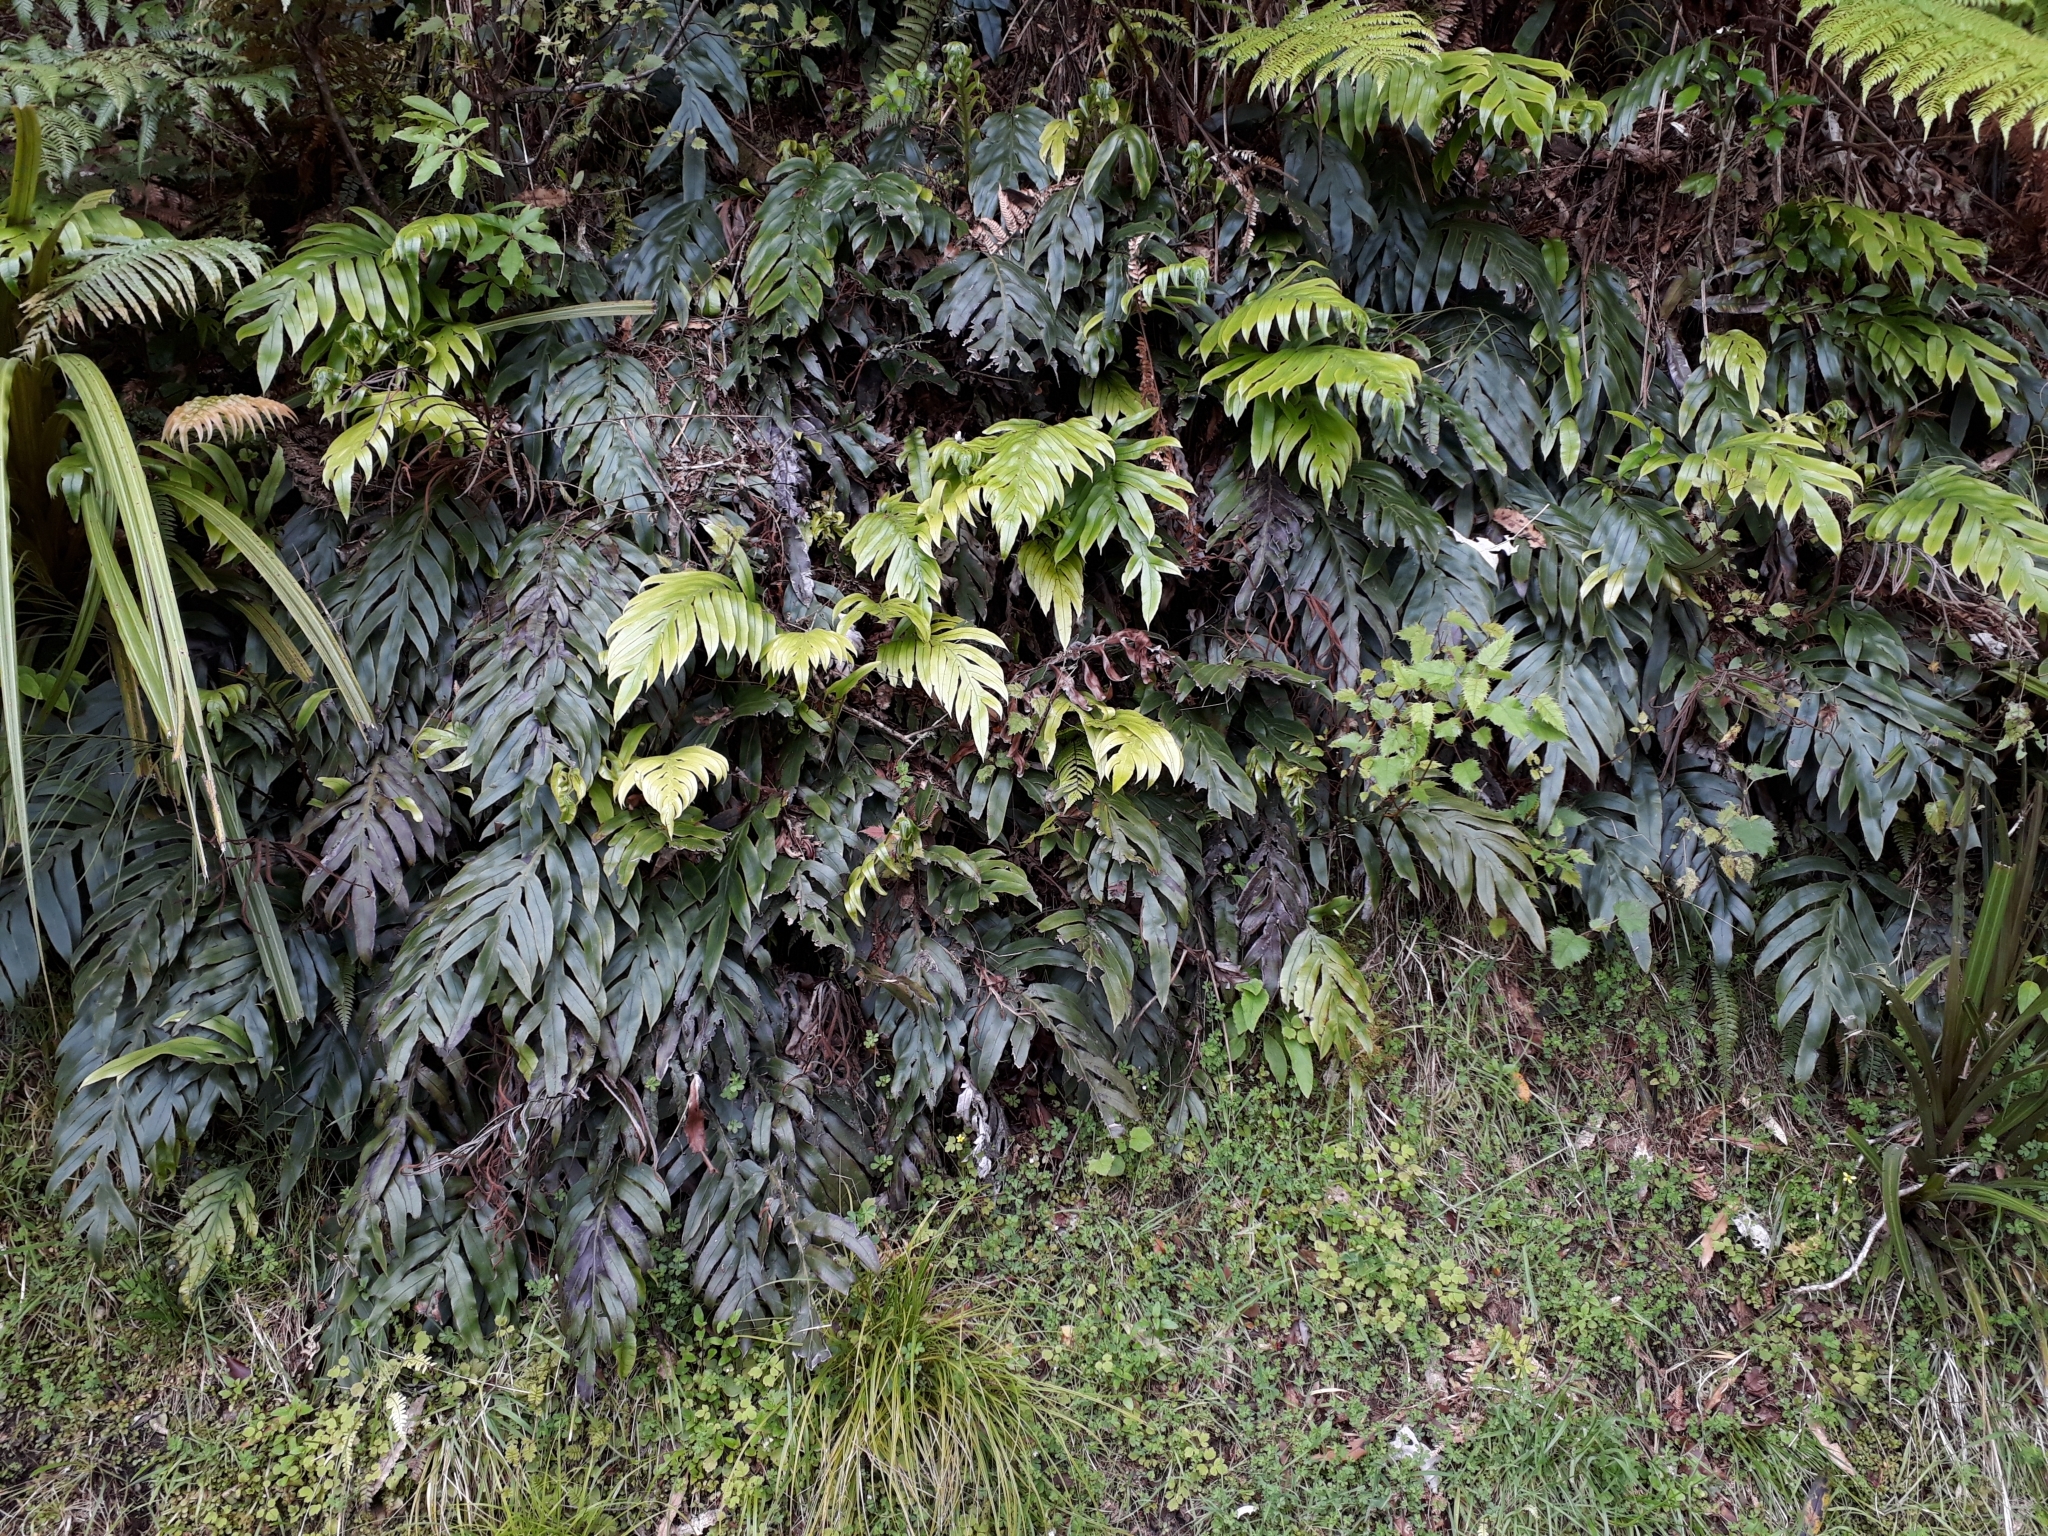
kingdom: Plantae
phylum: Tracheophyta
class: Polypodiopsida
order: Polypodiales
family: Blechnaceae
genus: Austroblechnum
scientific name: Austroblechnum colensoi
